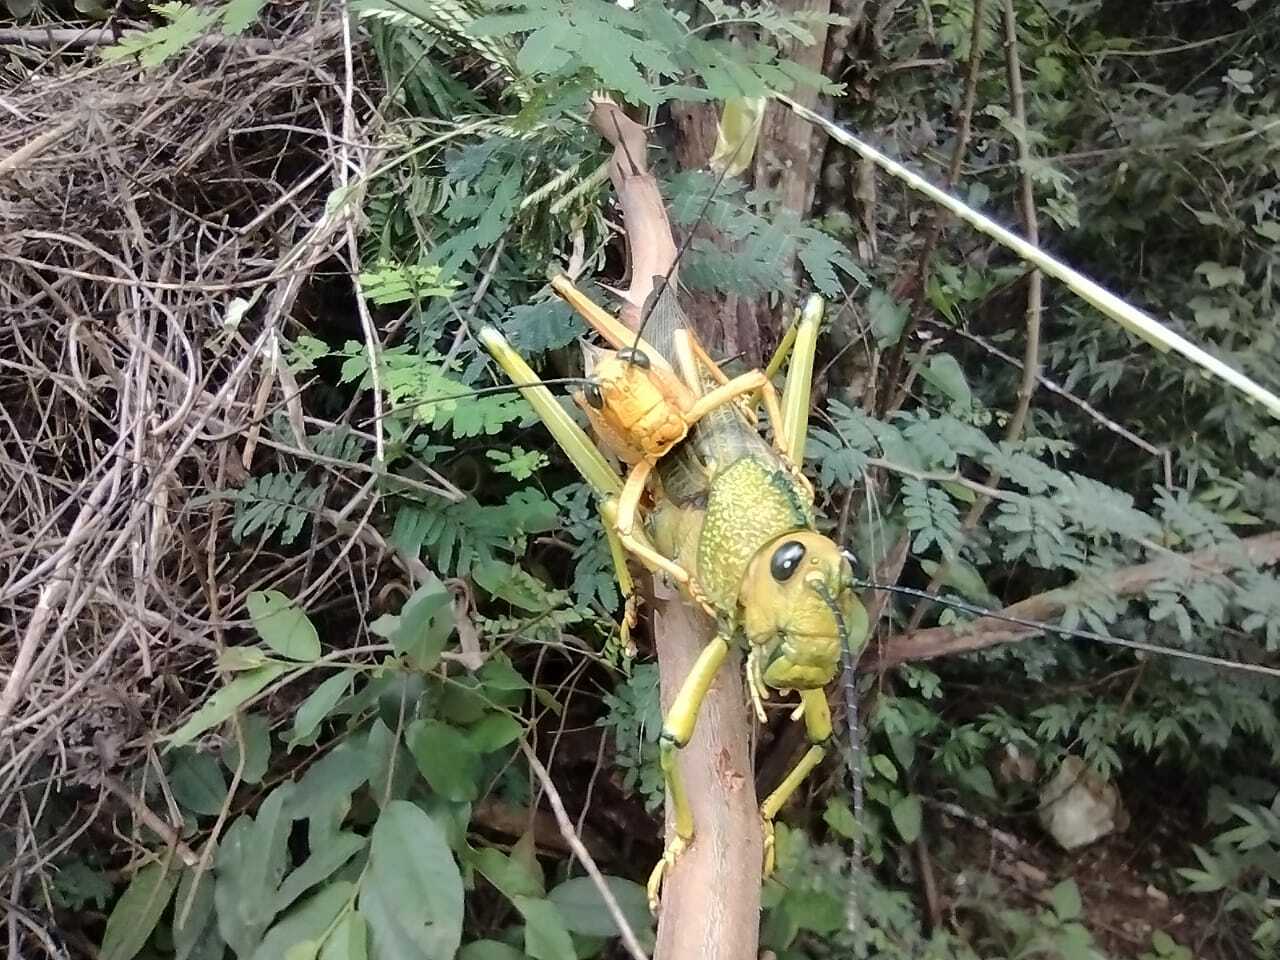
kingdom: Animalia
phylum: Arthropoda
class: Insecta
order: Orthoptera
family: Romaleidae
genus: Tropidacris
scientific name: Tropidacris cristata
